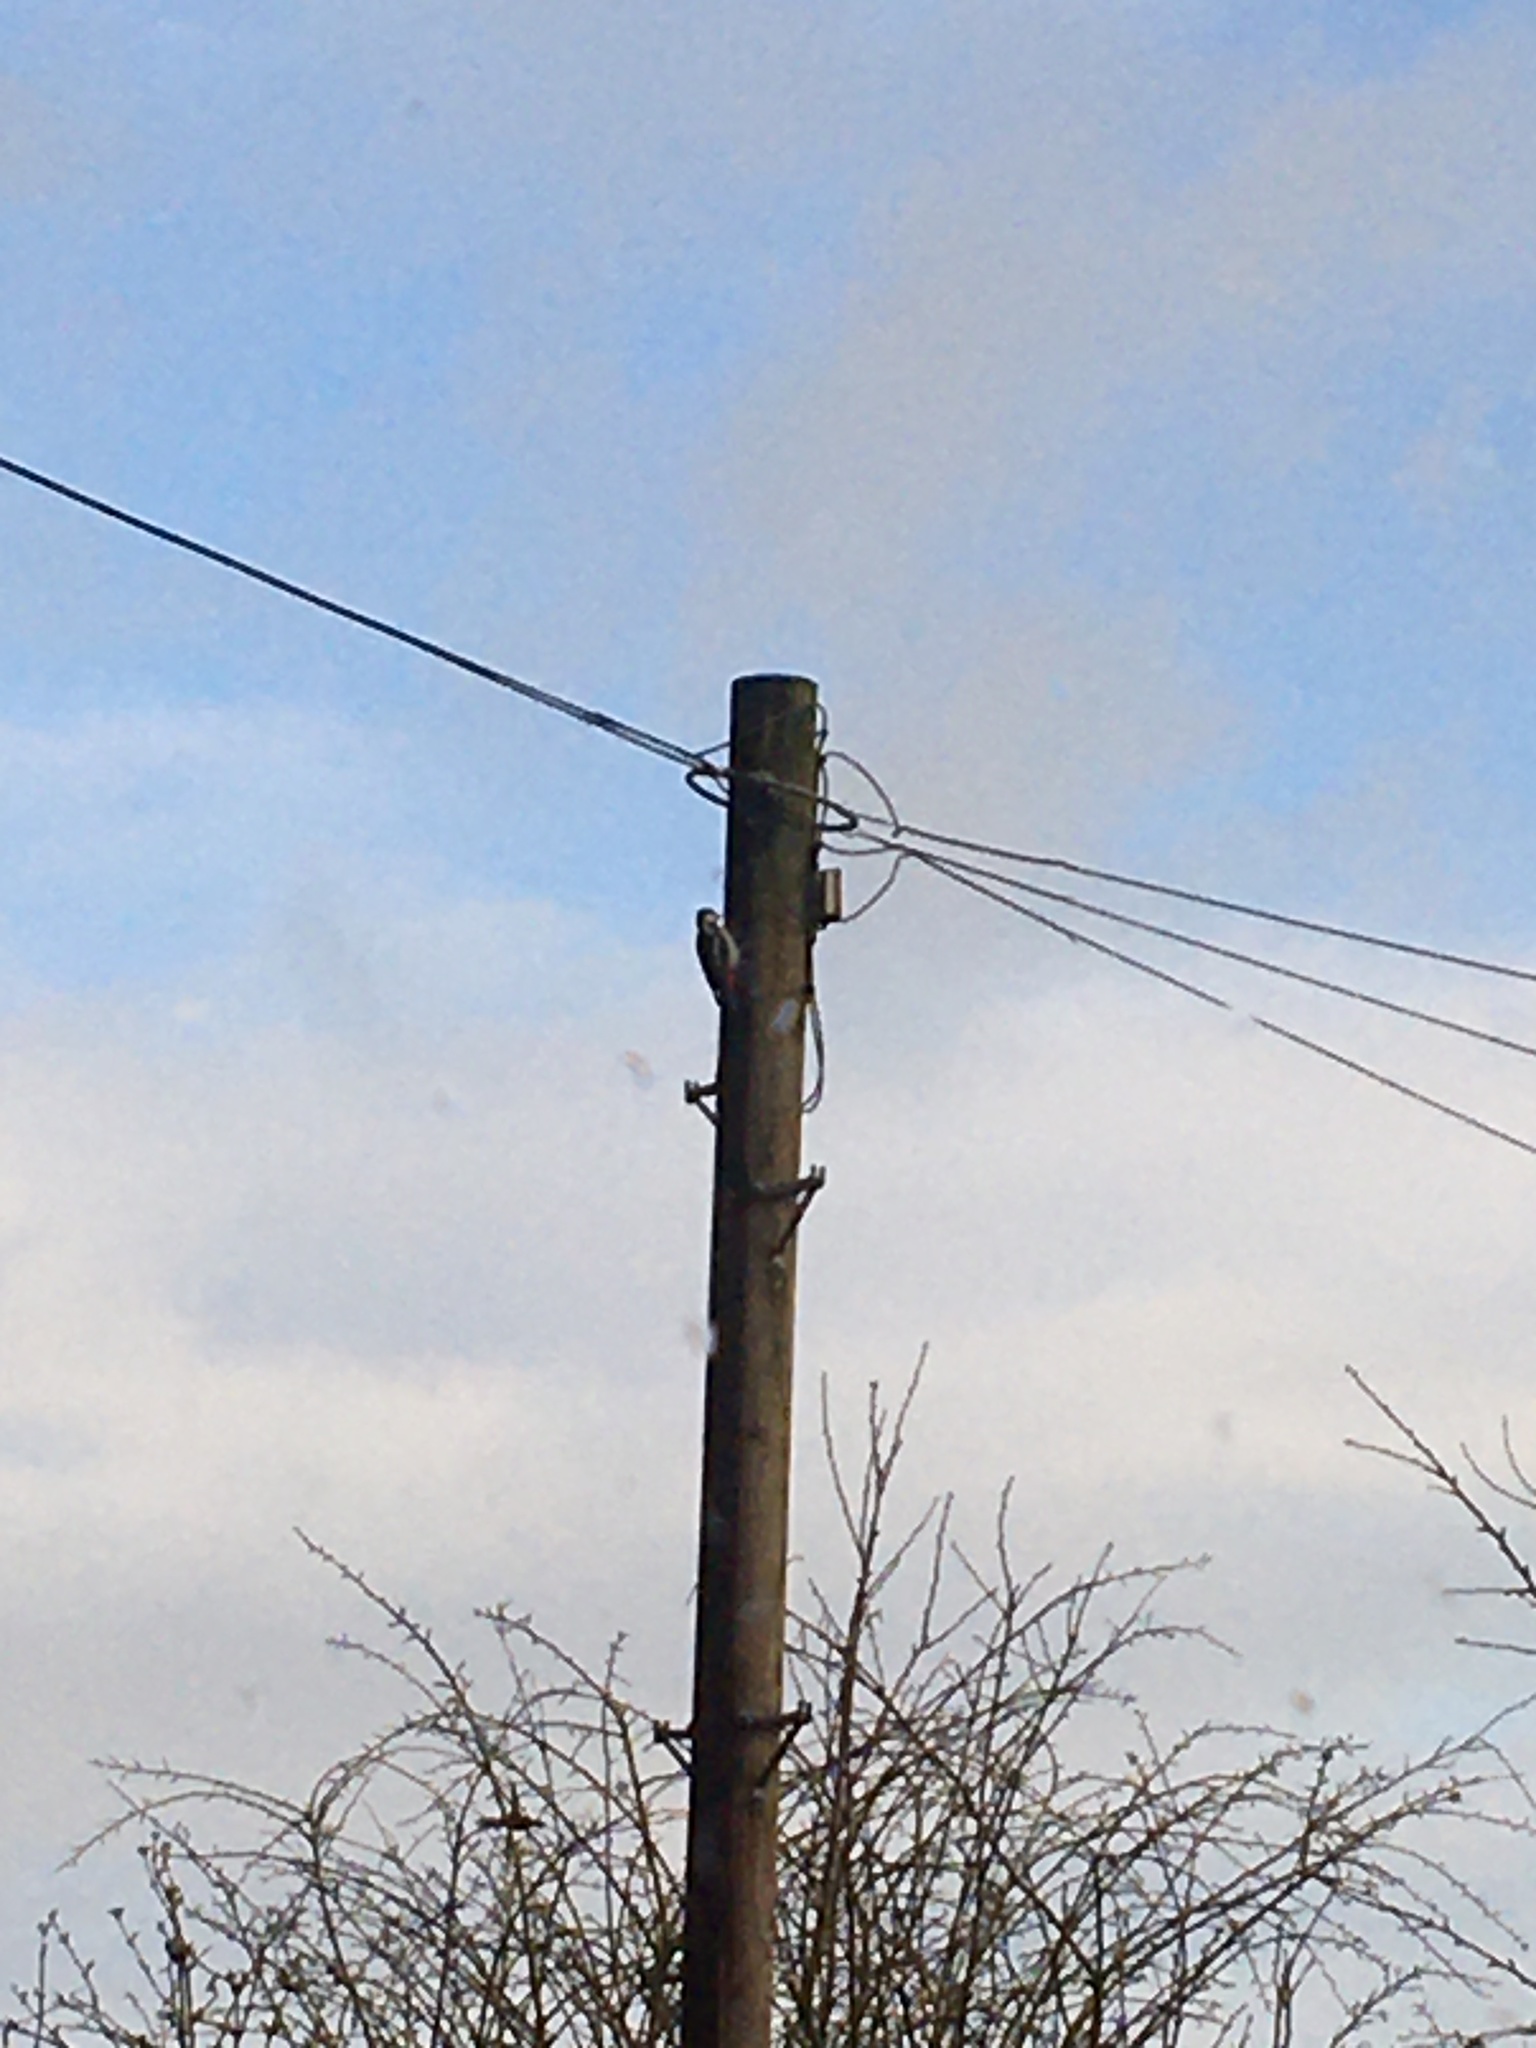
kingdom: Animalia
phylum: Chordata
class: Aves
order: Piciformes
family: Picidae
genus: Dendrocopos
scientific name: Dendrocopos major
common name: Great spotted woodpecker
